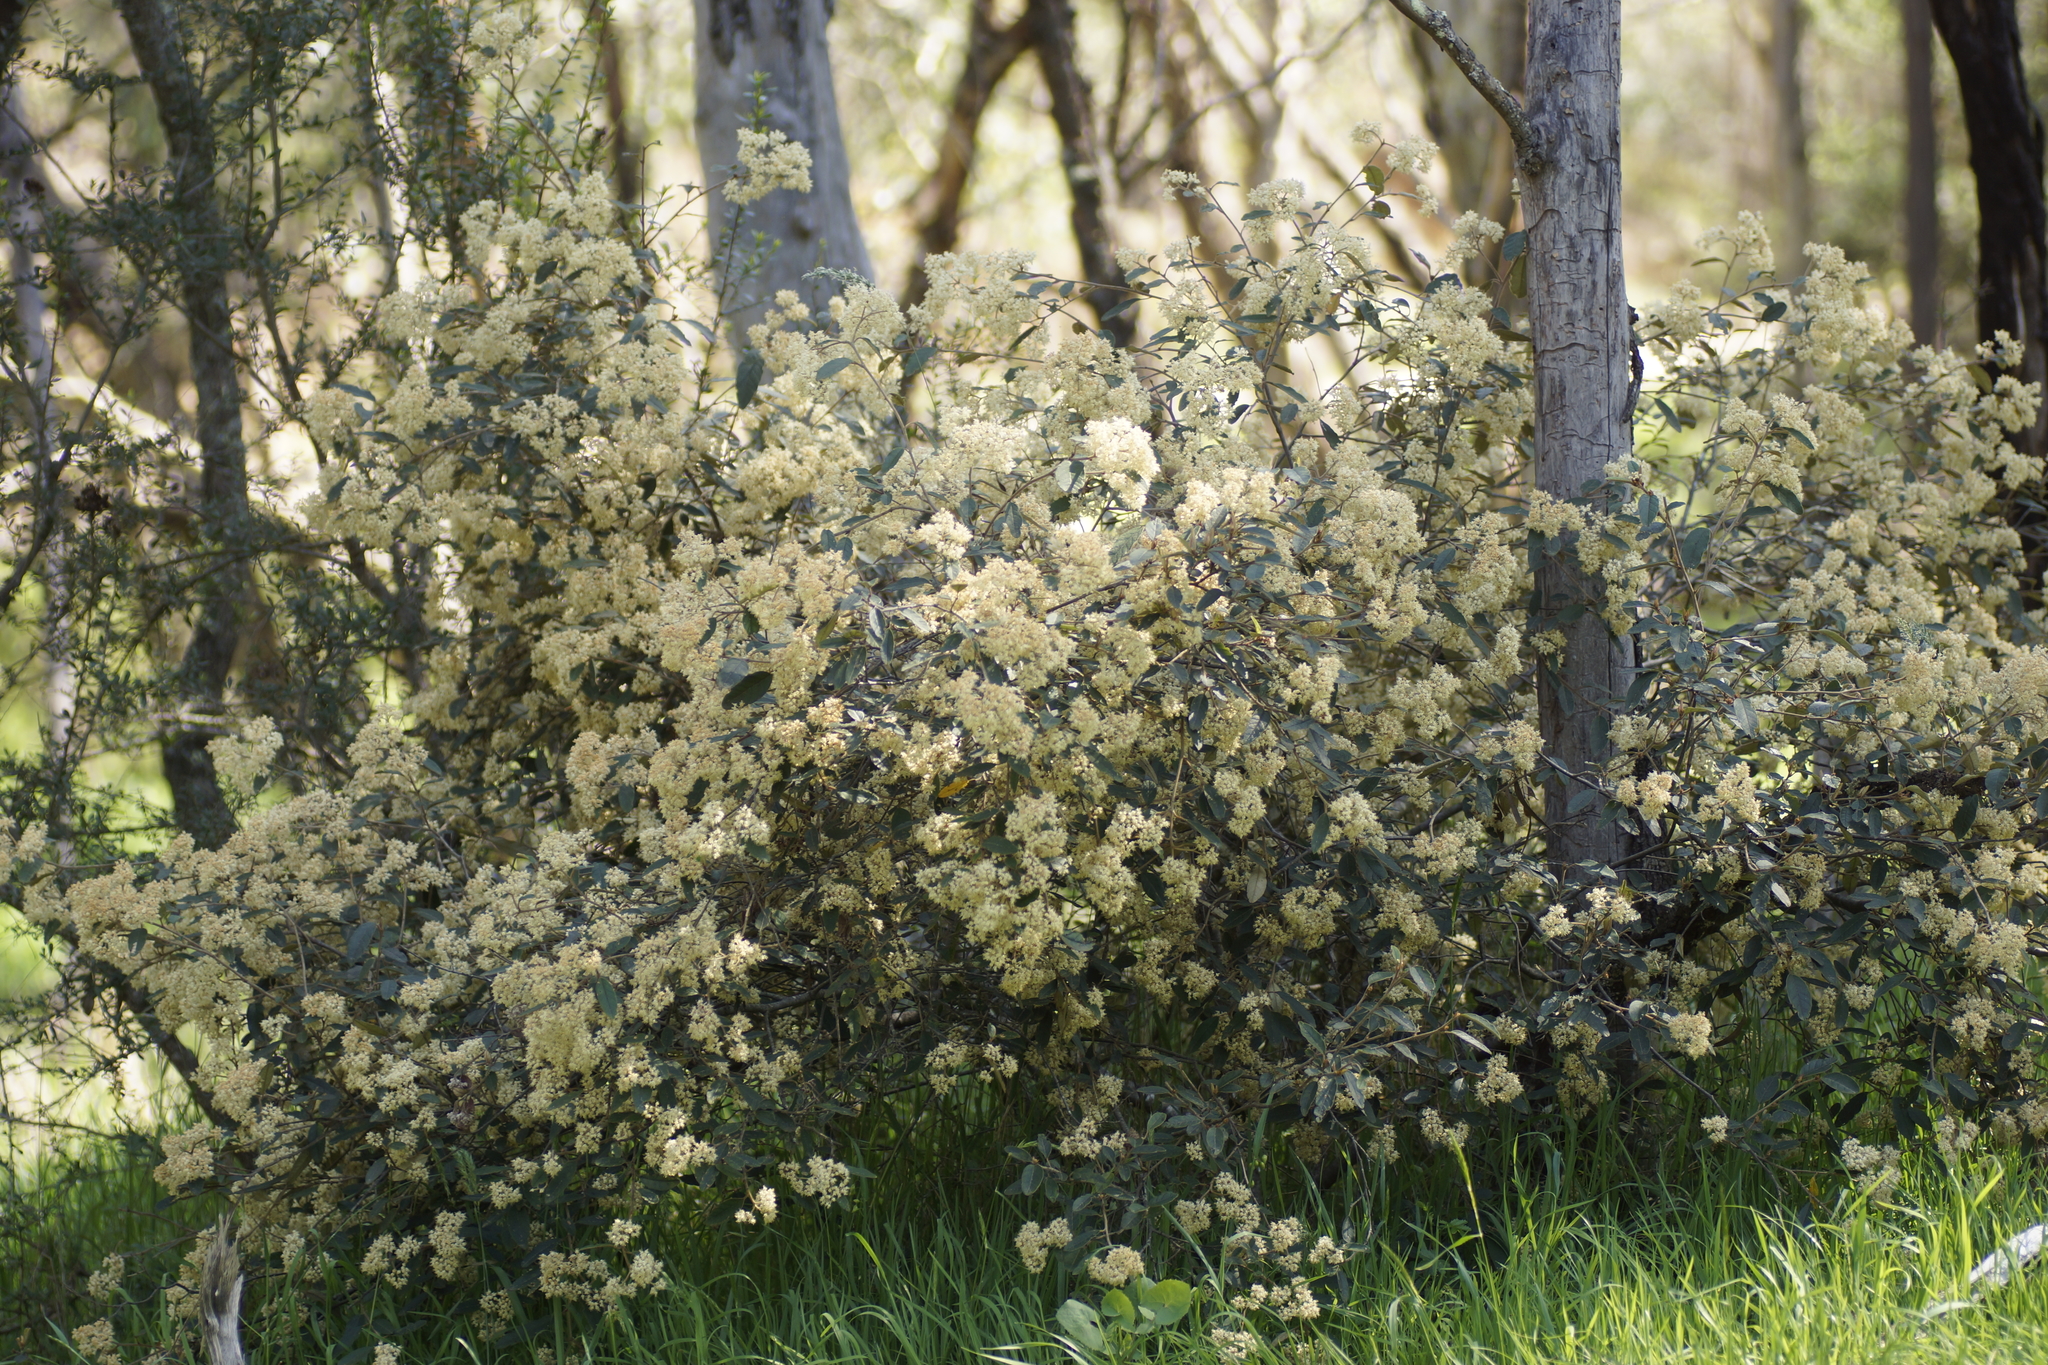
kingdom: Plantae
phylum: Tracheophyta
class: Magnoliopsida
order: Rosales
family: Rhamnaceae
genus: Pomaderris
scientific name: Pomaderris
